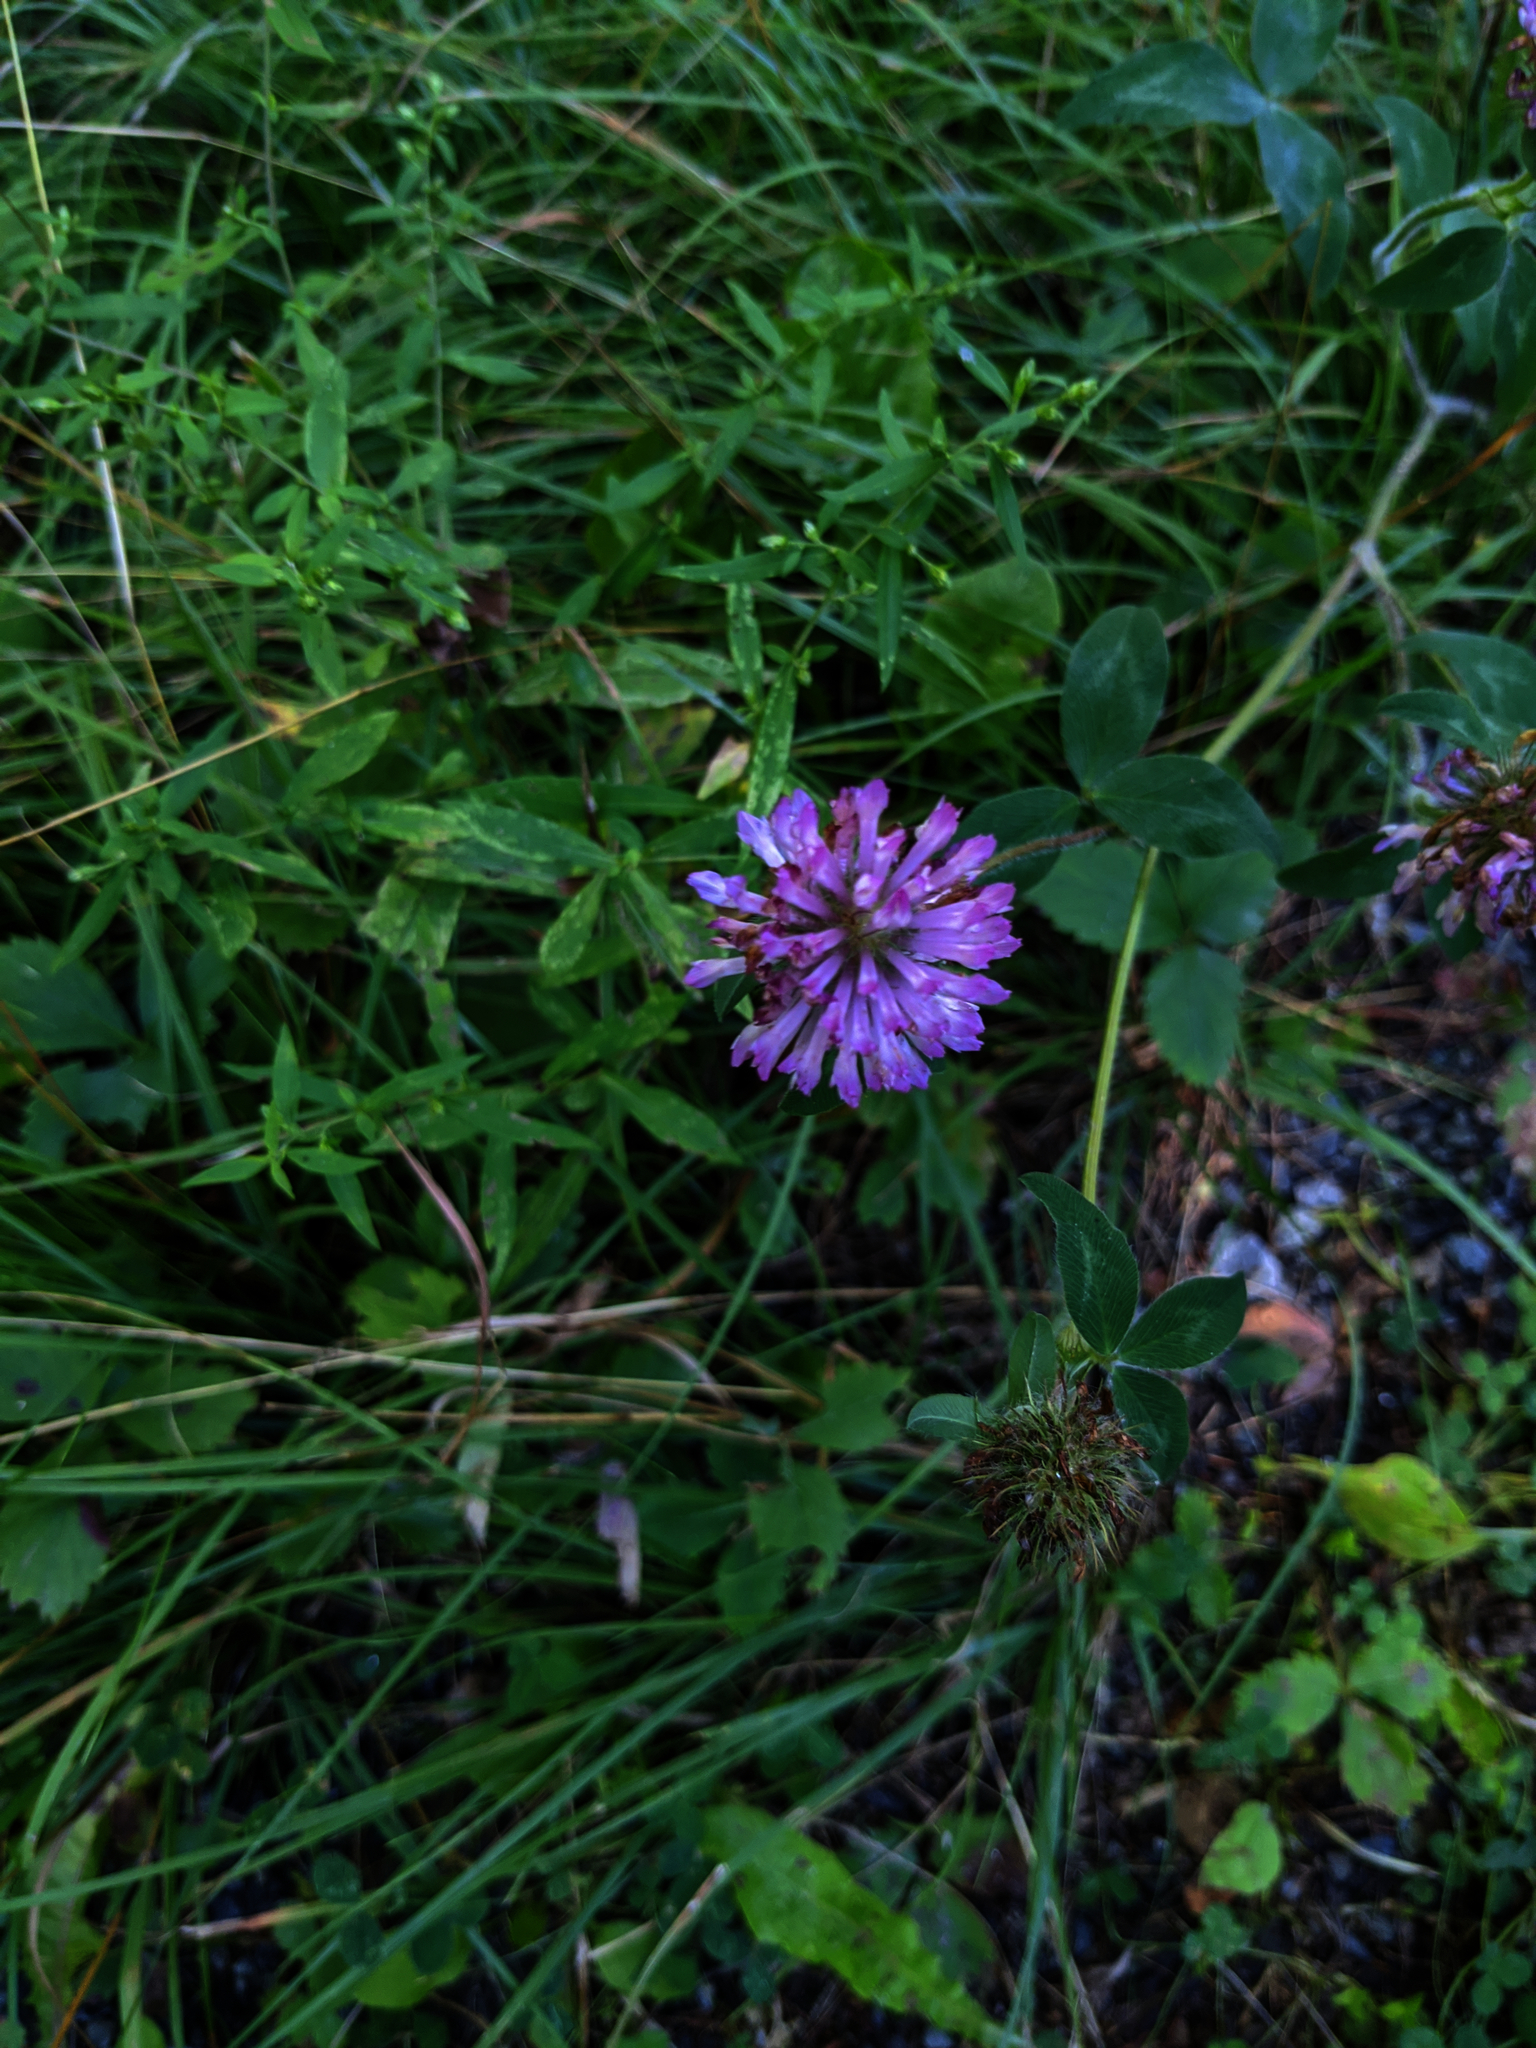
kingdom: Plantae
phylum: Tracheophyta
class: Magnoliopsida
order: Fabales
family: Fabaceae
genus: Trifolium
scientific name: Trifolium pratense
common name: Red clover
